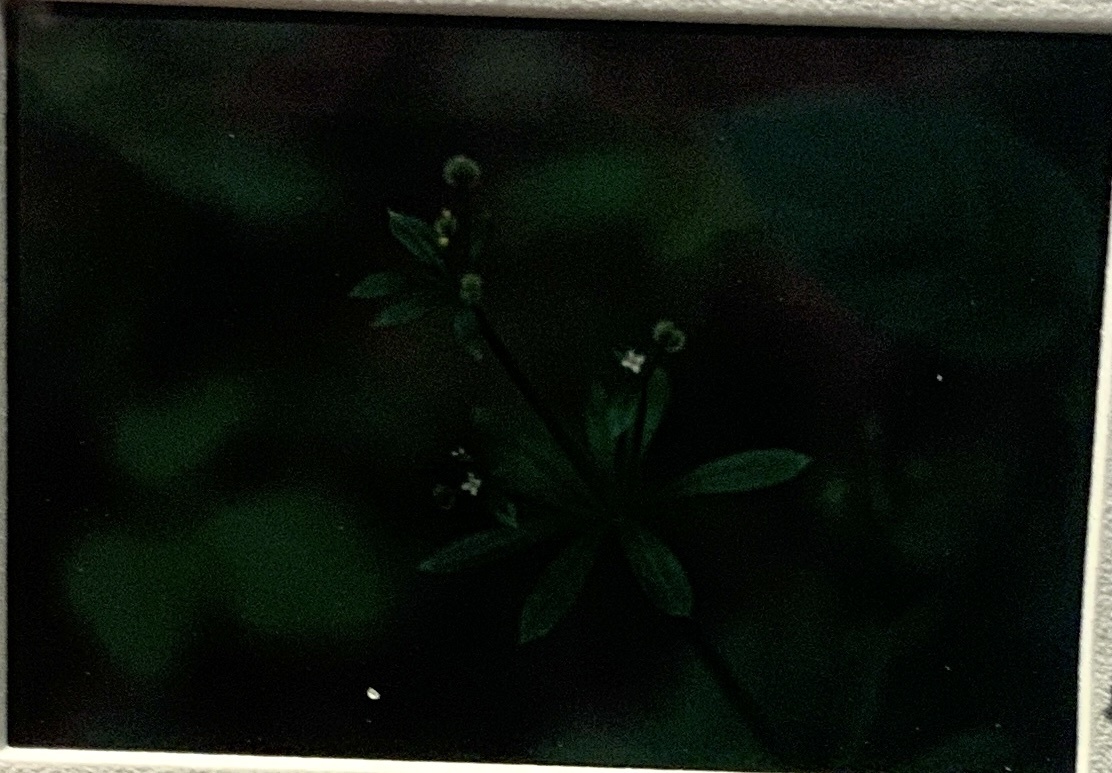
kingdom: Plantae
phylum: Tracheophyta
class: Magnoliopsida
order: Gentianales
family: Rubiaceae
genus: Galium
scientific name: Galium aparine
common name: Cleavers
